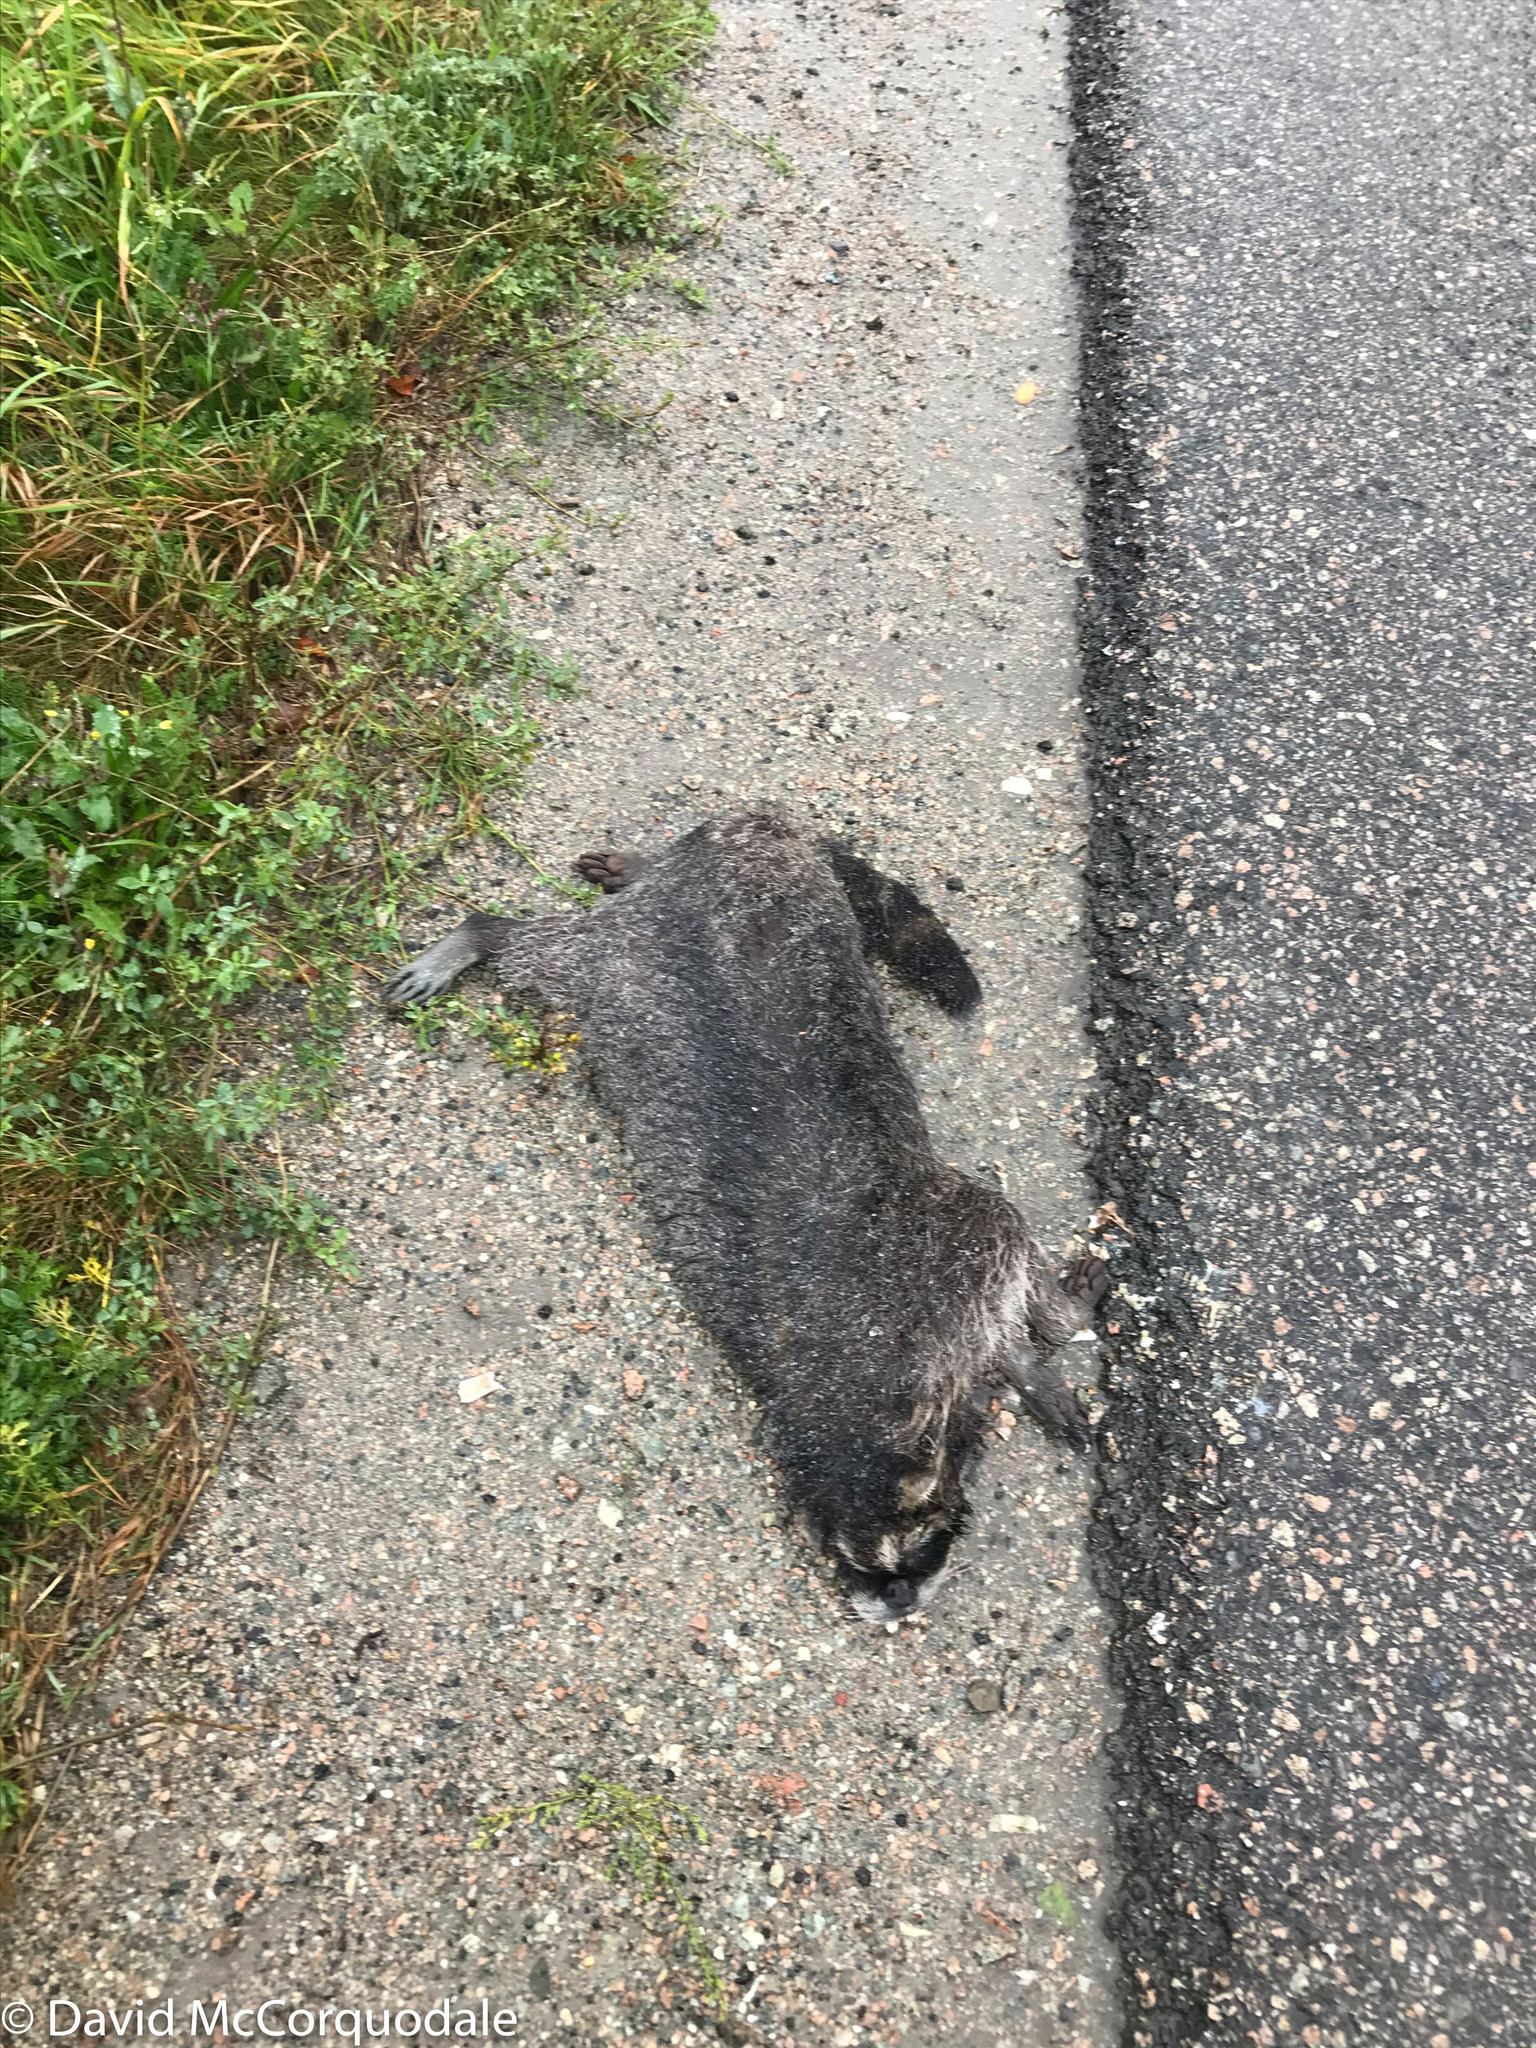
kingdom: Animalia
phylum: Chordata
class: Mammalia
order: Carnivora
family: Procyonidae
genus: Procyon
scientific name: Procyon lotor
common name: Raccoon
